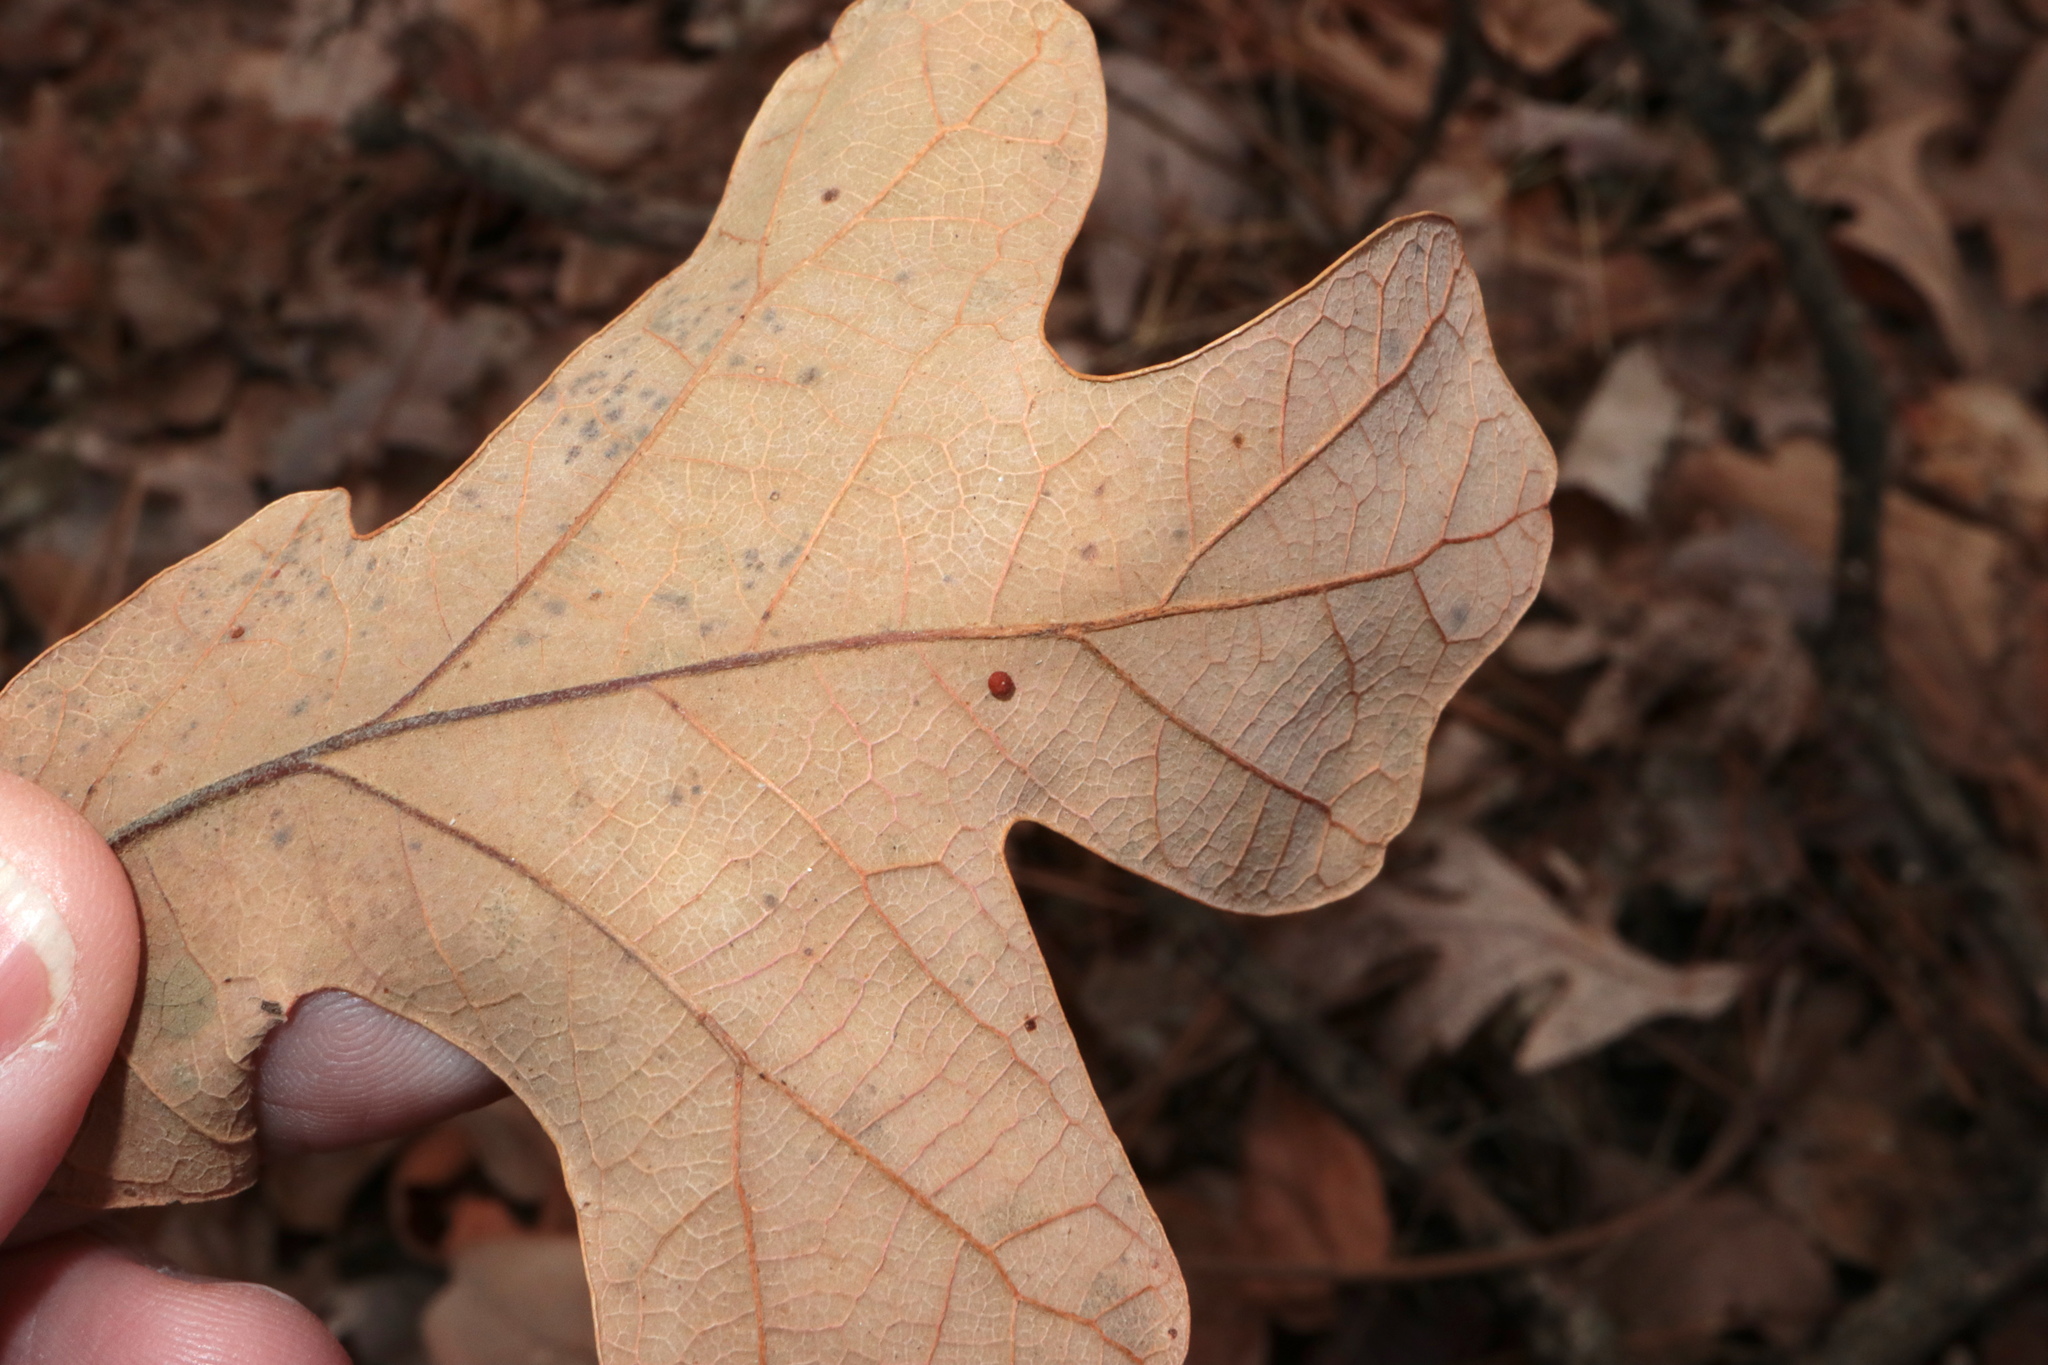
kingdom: Animalia
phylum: Arthropoda
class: Insecta
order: Hymenoptera
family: Cynipidae
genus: Neuroterus
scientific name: Neuroterus saltarius
